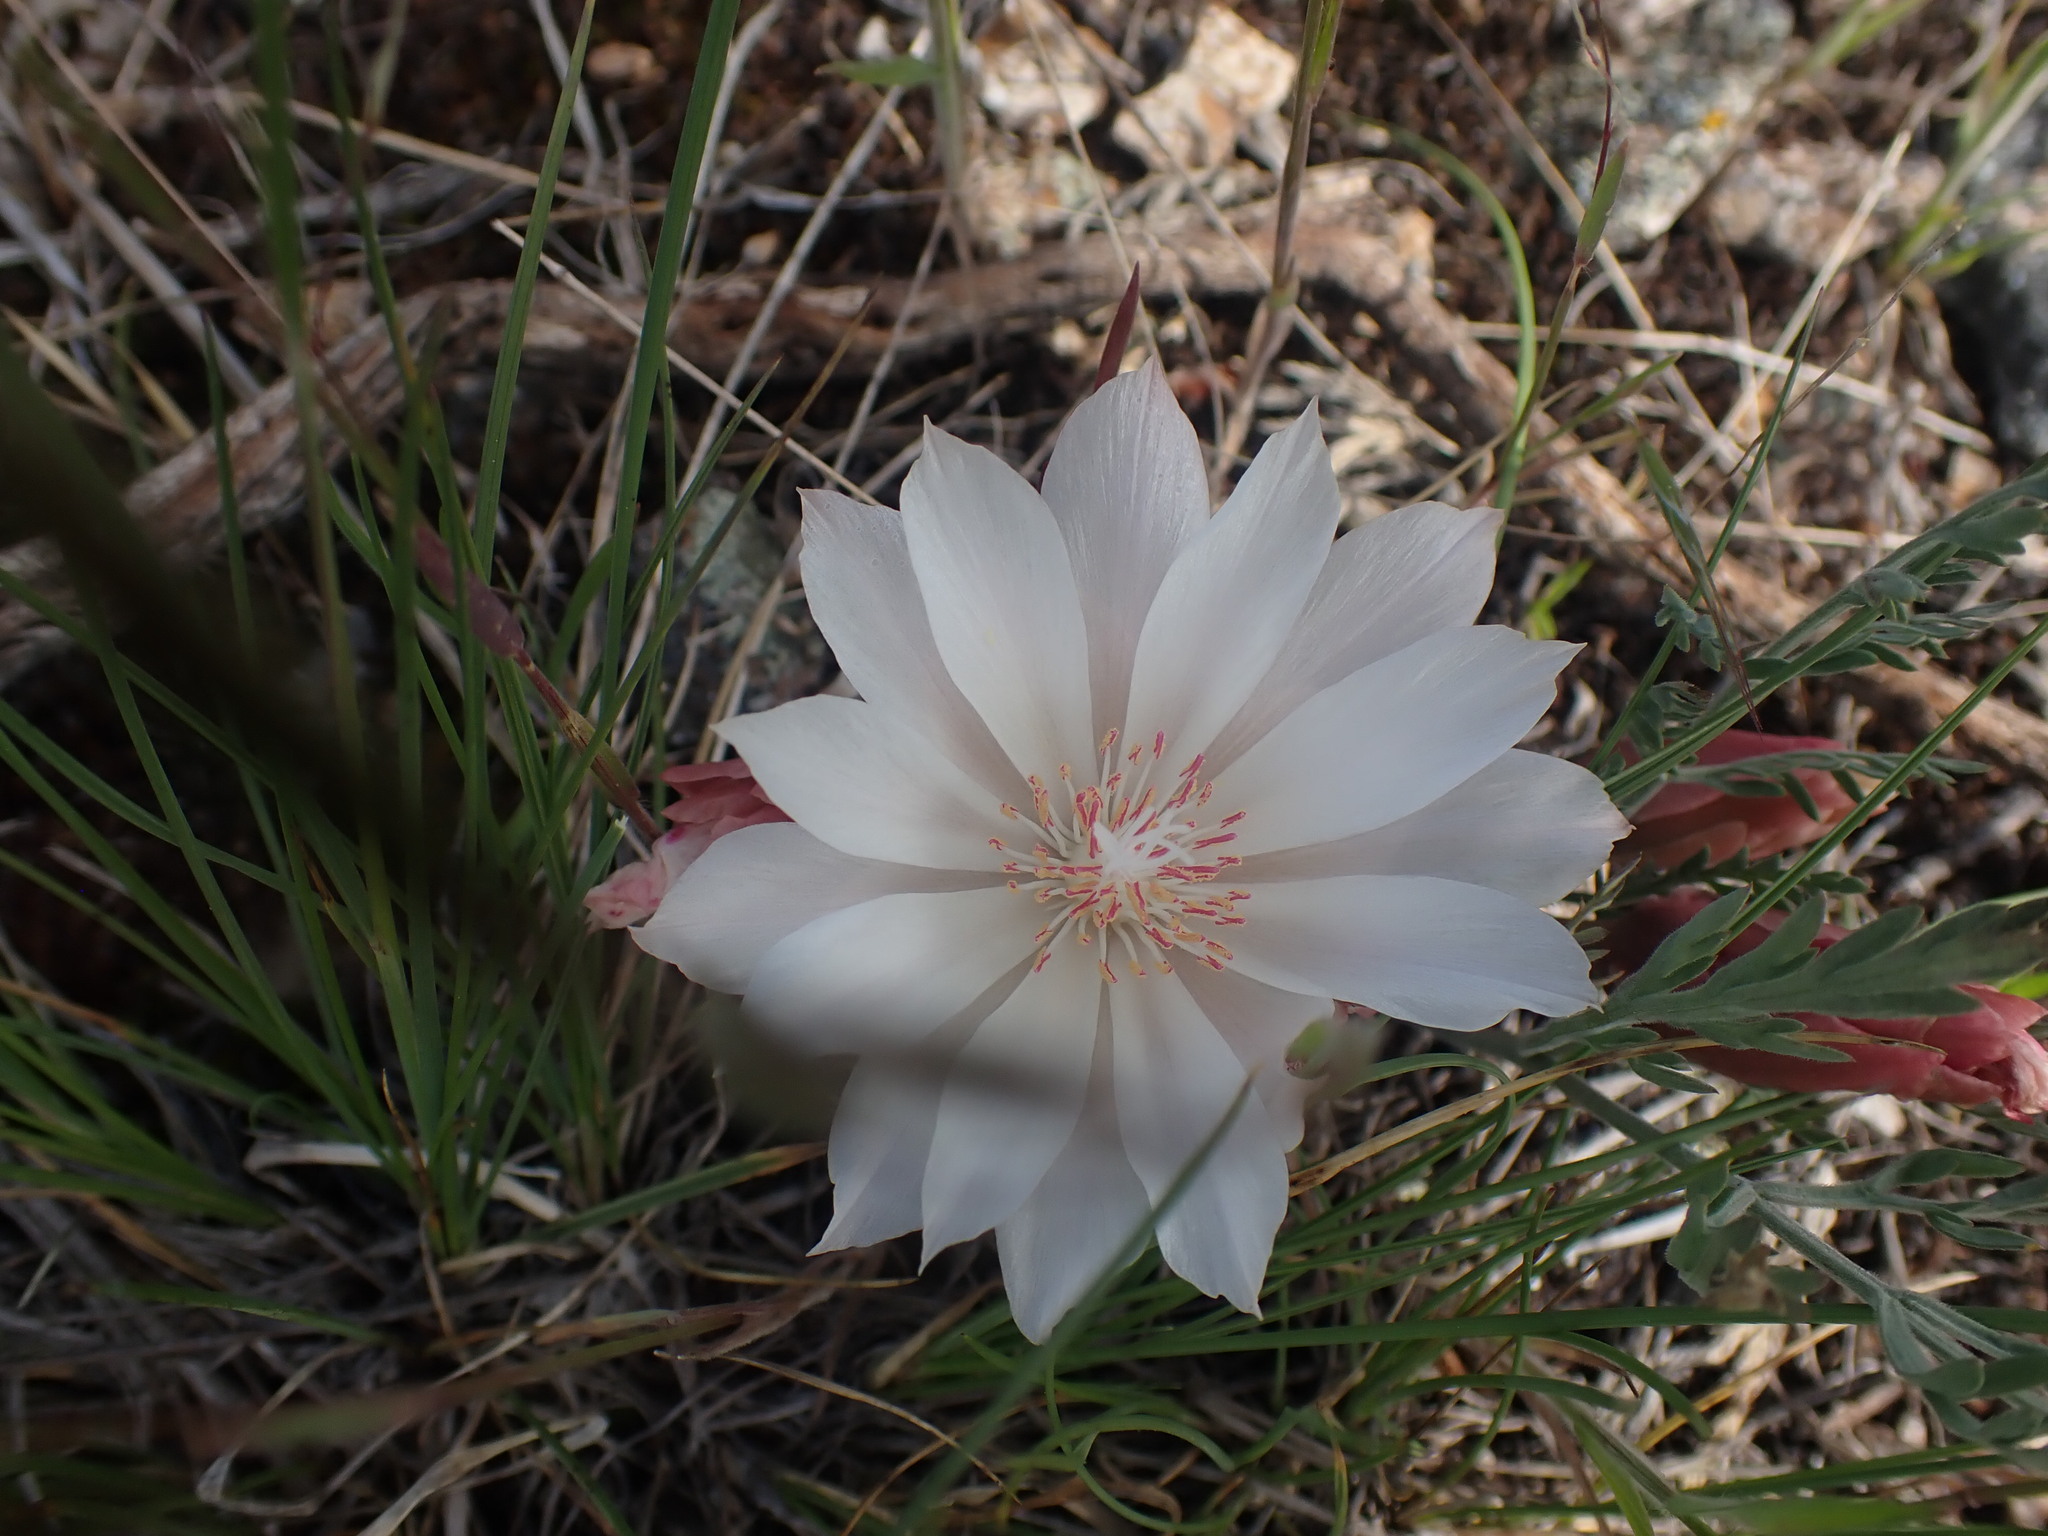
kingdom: Plantae
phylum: Tracheophyta
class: Magnoliopsida
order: Caryophyllales
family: Montiaceae
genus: Lewisia
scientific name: Lewisia rediviva
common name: Bitter-root
